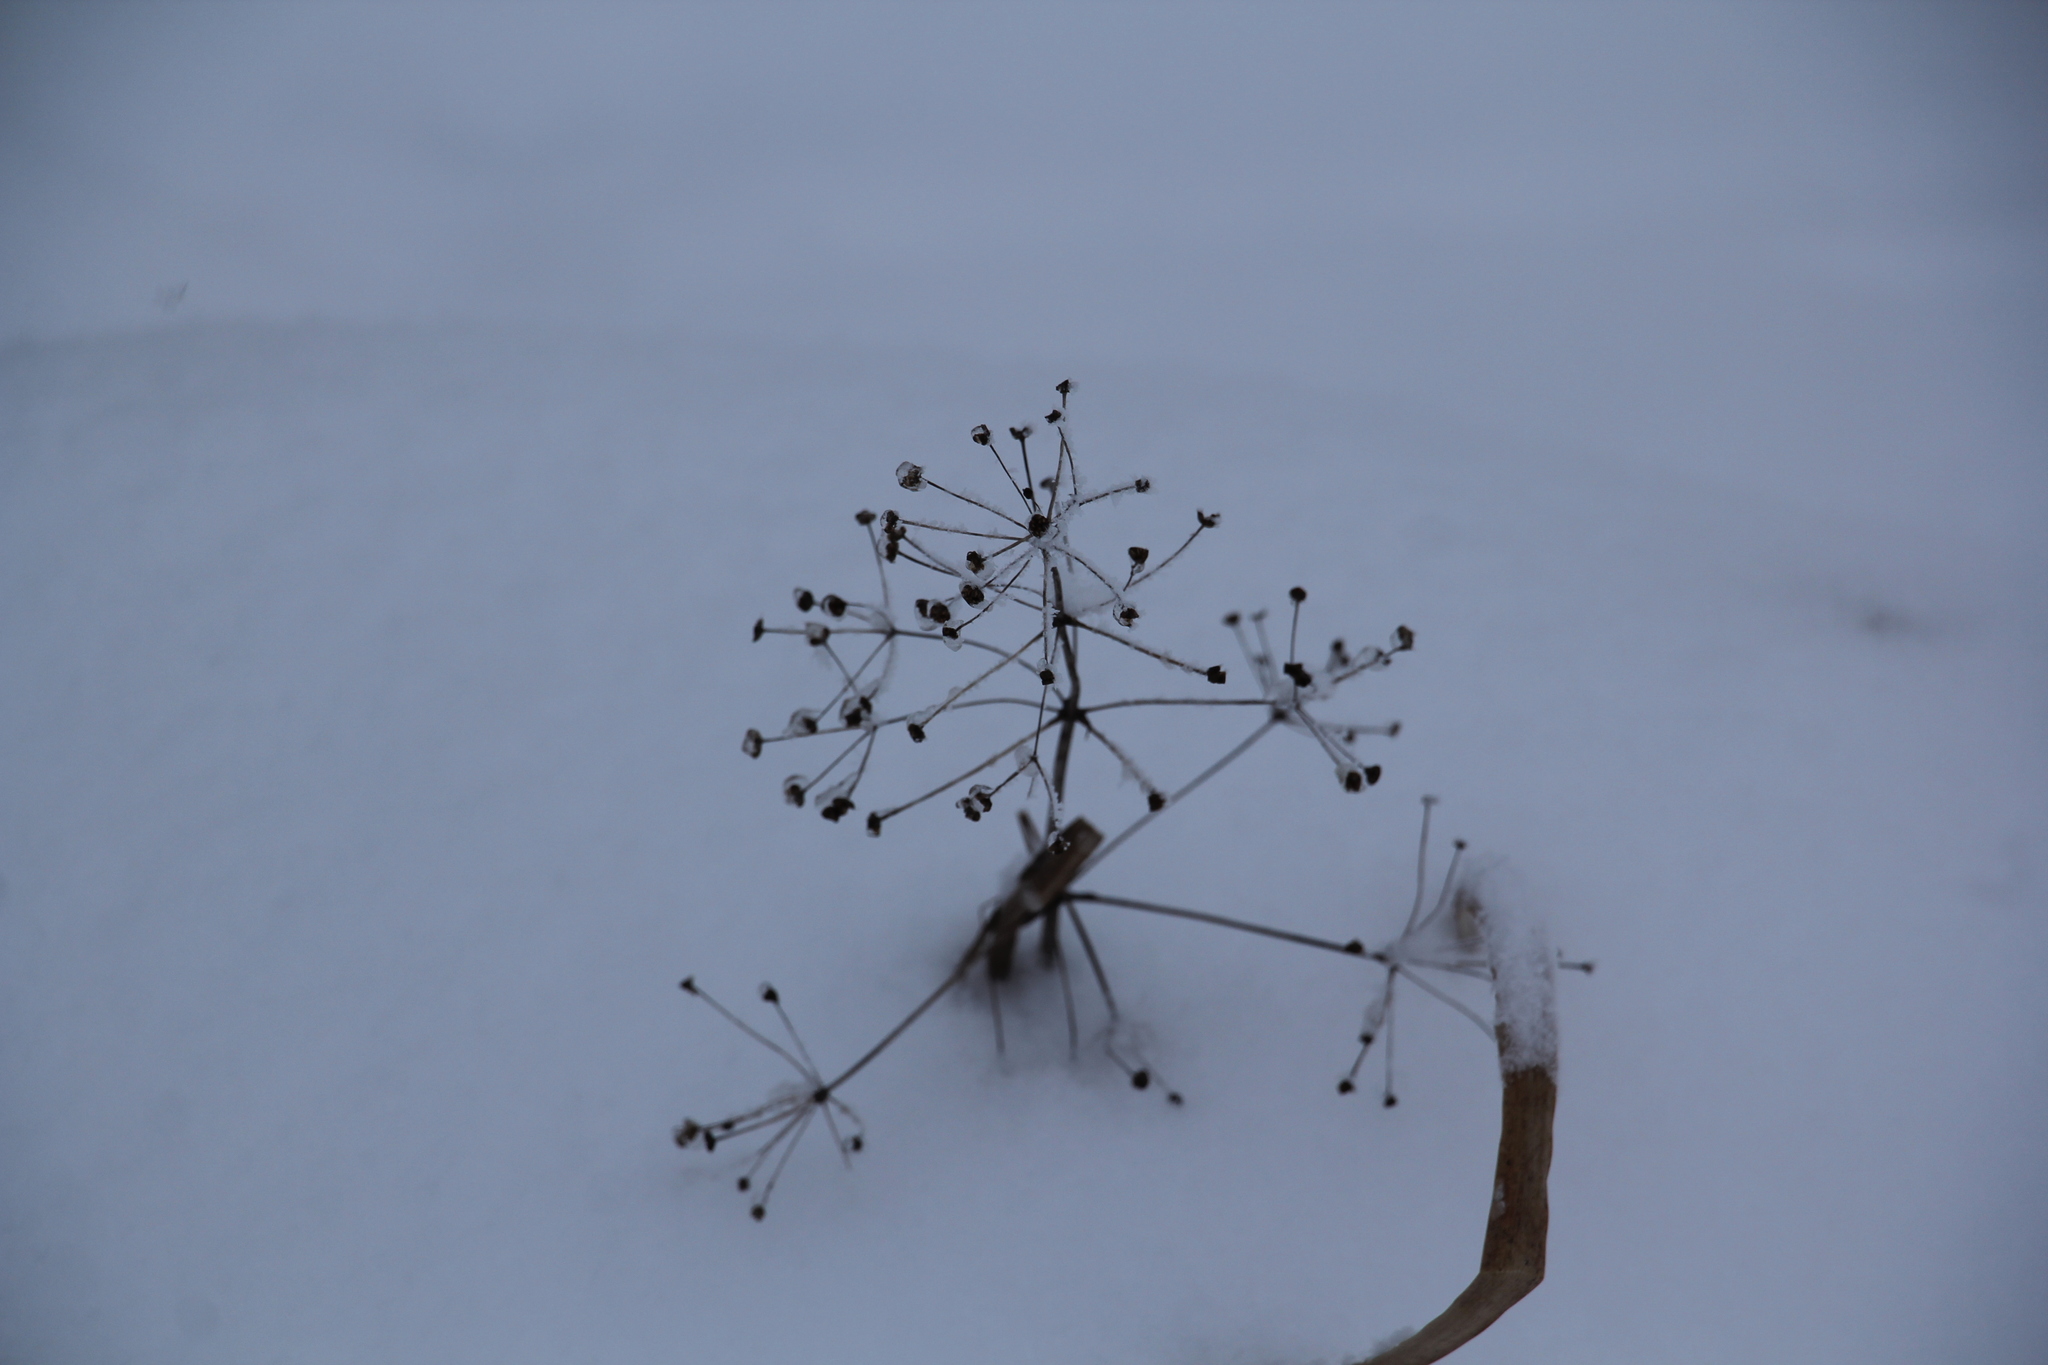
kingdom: Plantae
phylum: Tracheophyta
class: Liliopsida
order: Alismatales
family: Alismataceae
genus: Alisma
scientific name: Alisma plantago-aquatica
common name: Water-plantain
